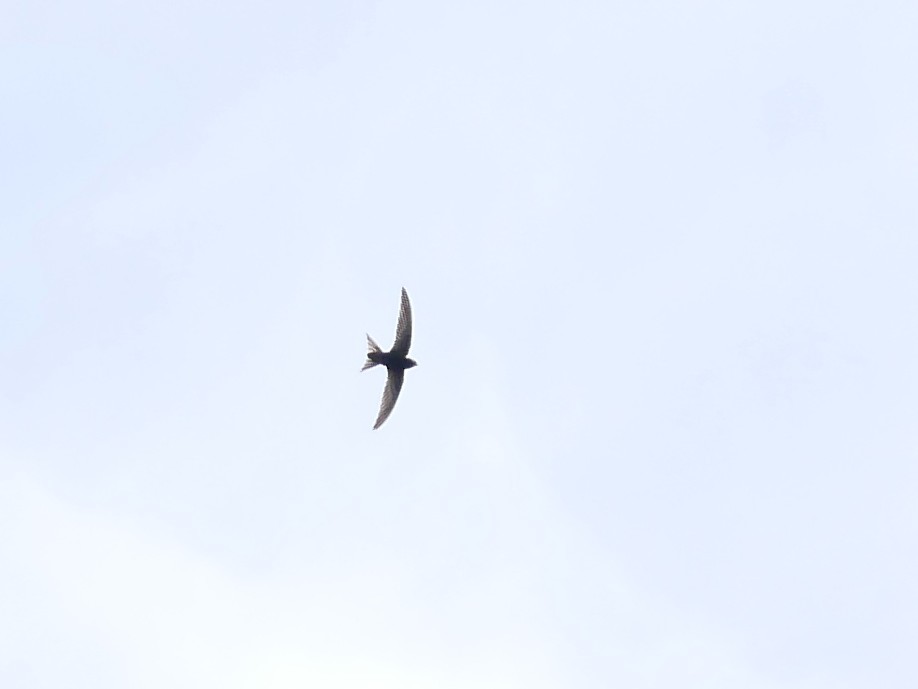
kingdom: Animalia
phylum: Chordata
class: Aves
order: Apodiformes
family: Apodidae
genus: Apus
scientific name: Apus apus
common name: Common swift
